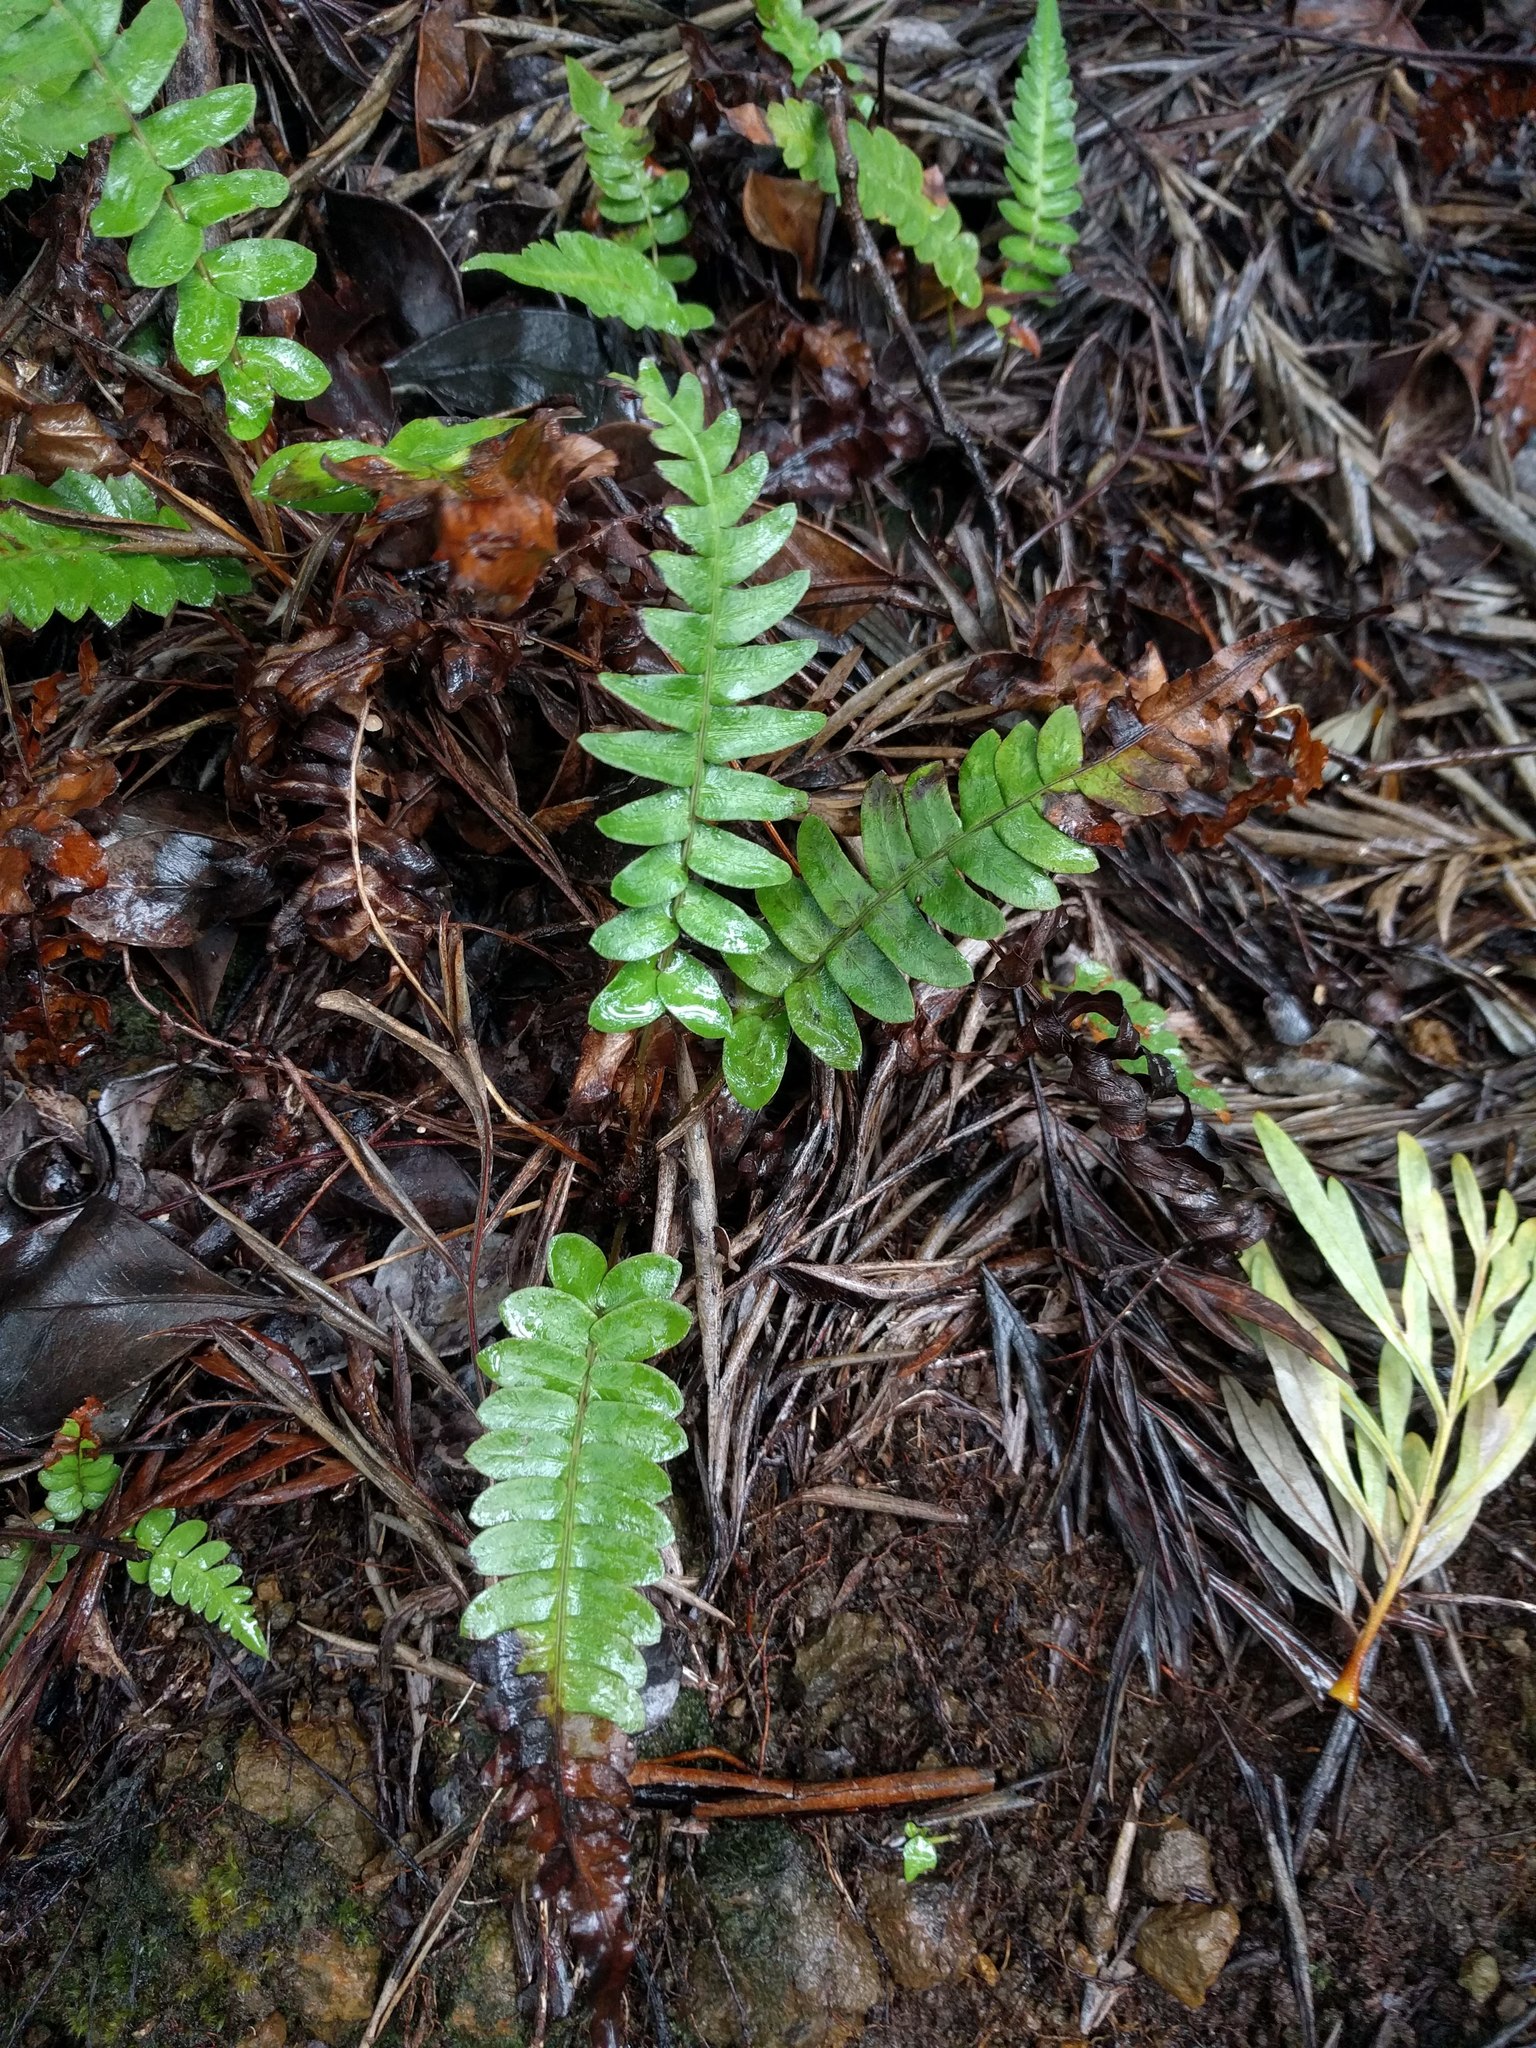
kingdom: Plantae
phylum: Tracheophyta
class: Polypodiopsida
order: Polypodiales
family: Blechnaceae
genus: Blechnum
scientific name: Blechnum appendiculatum
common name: Palm fern
